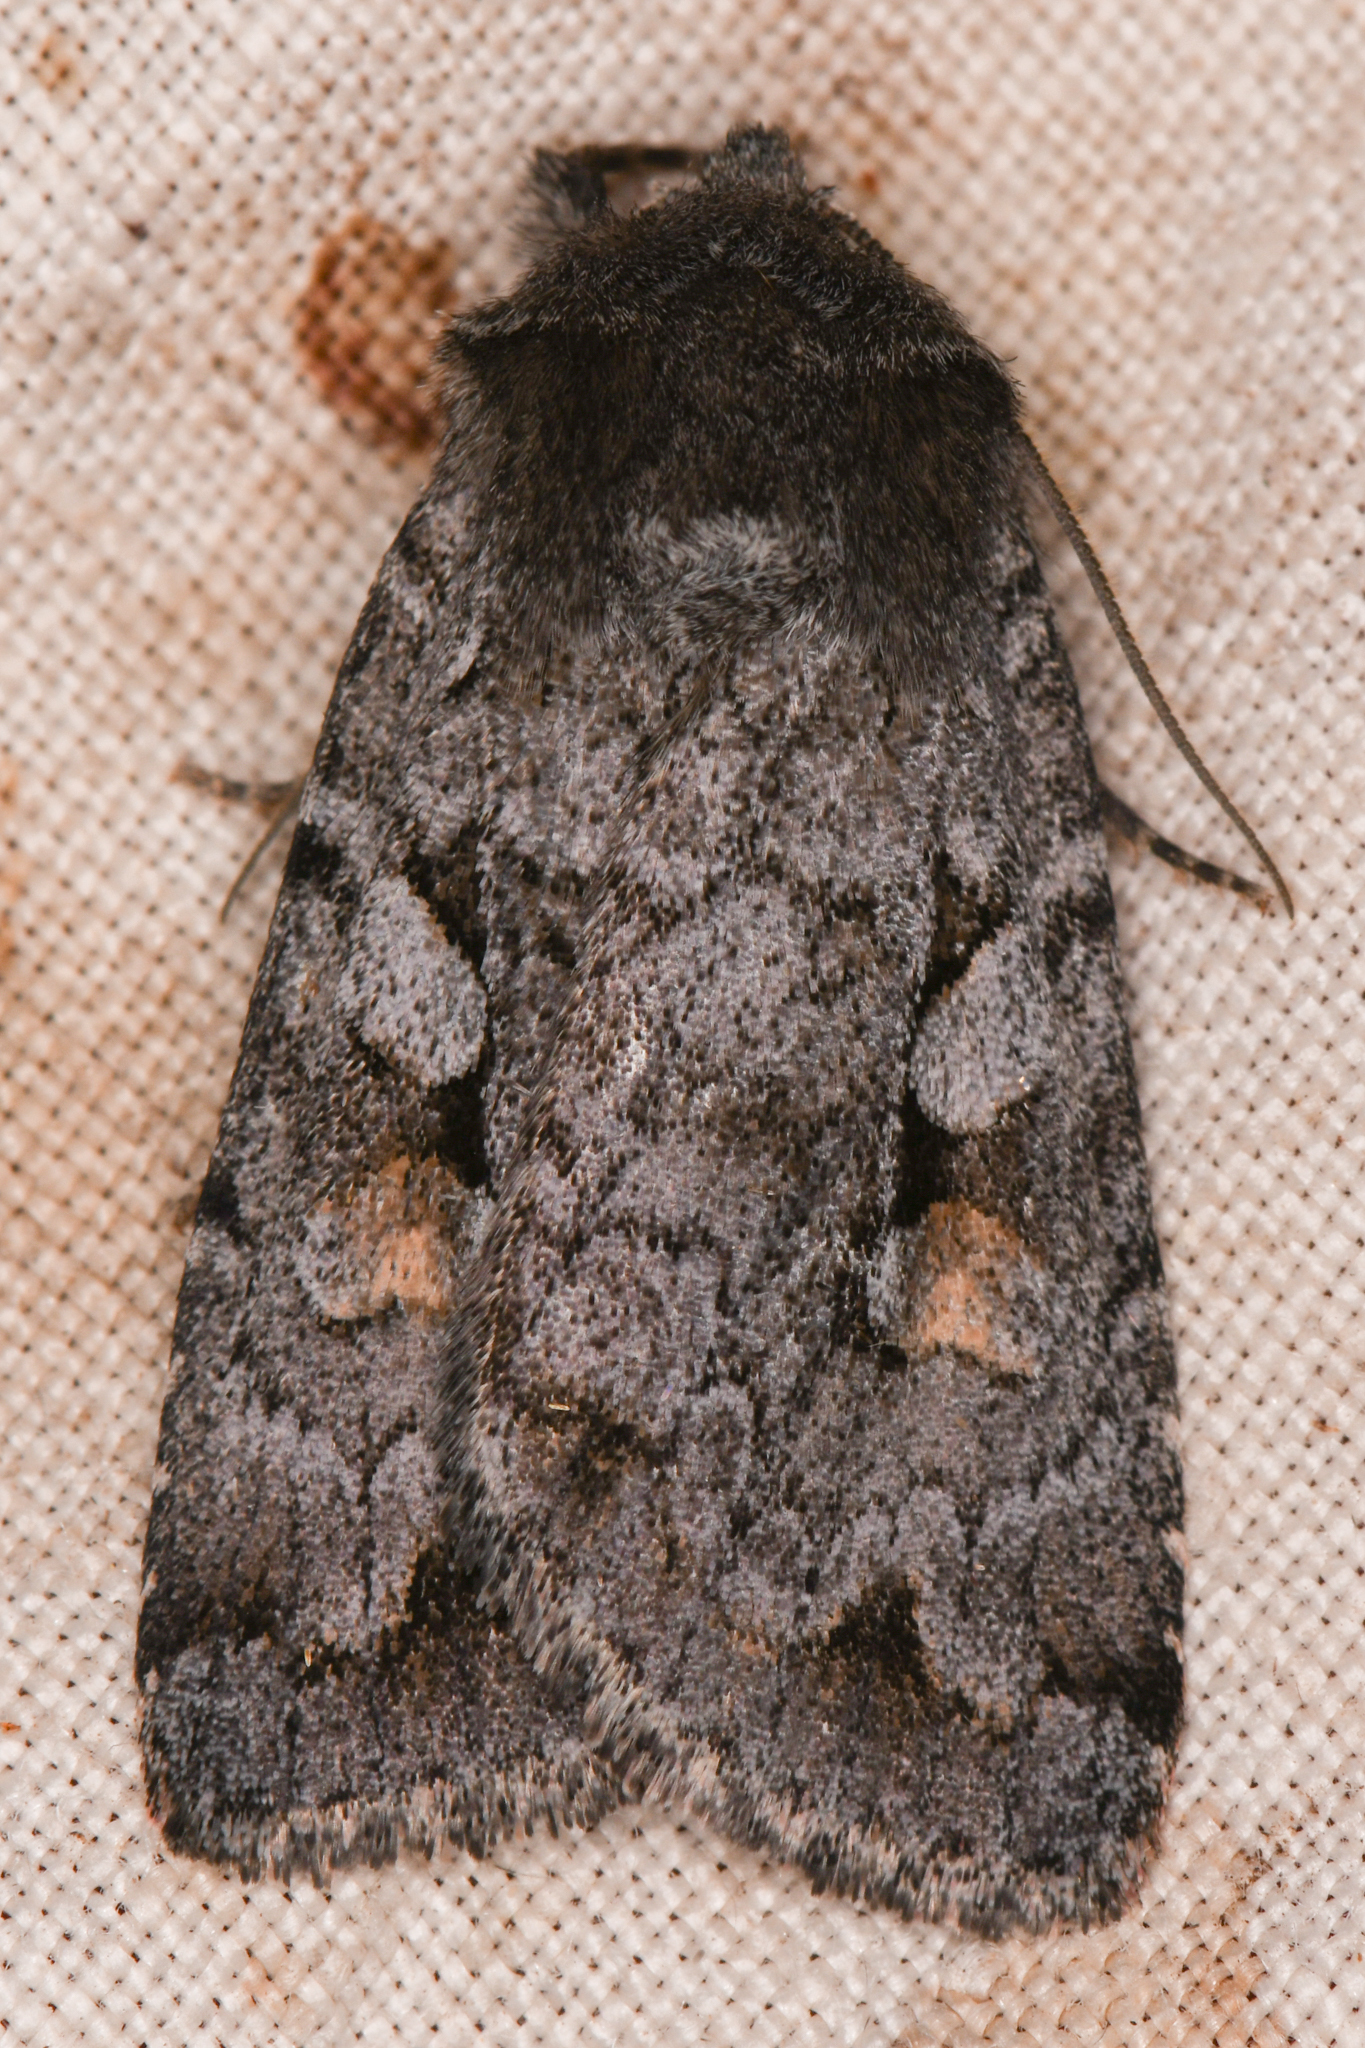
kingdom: Animalia
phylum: Arthropoda
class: Insecta
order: Lepidoptera
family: Noctuidae
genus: Xestia
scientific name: Xestia imperita
